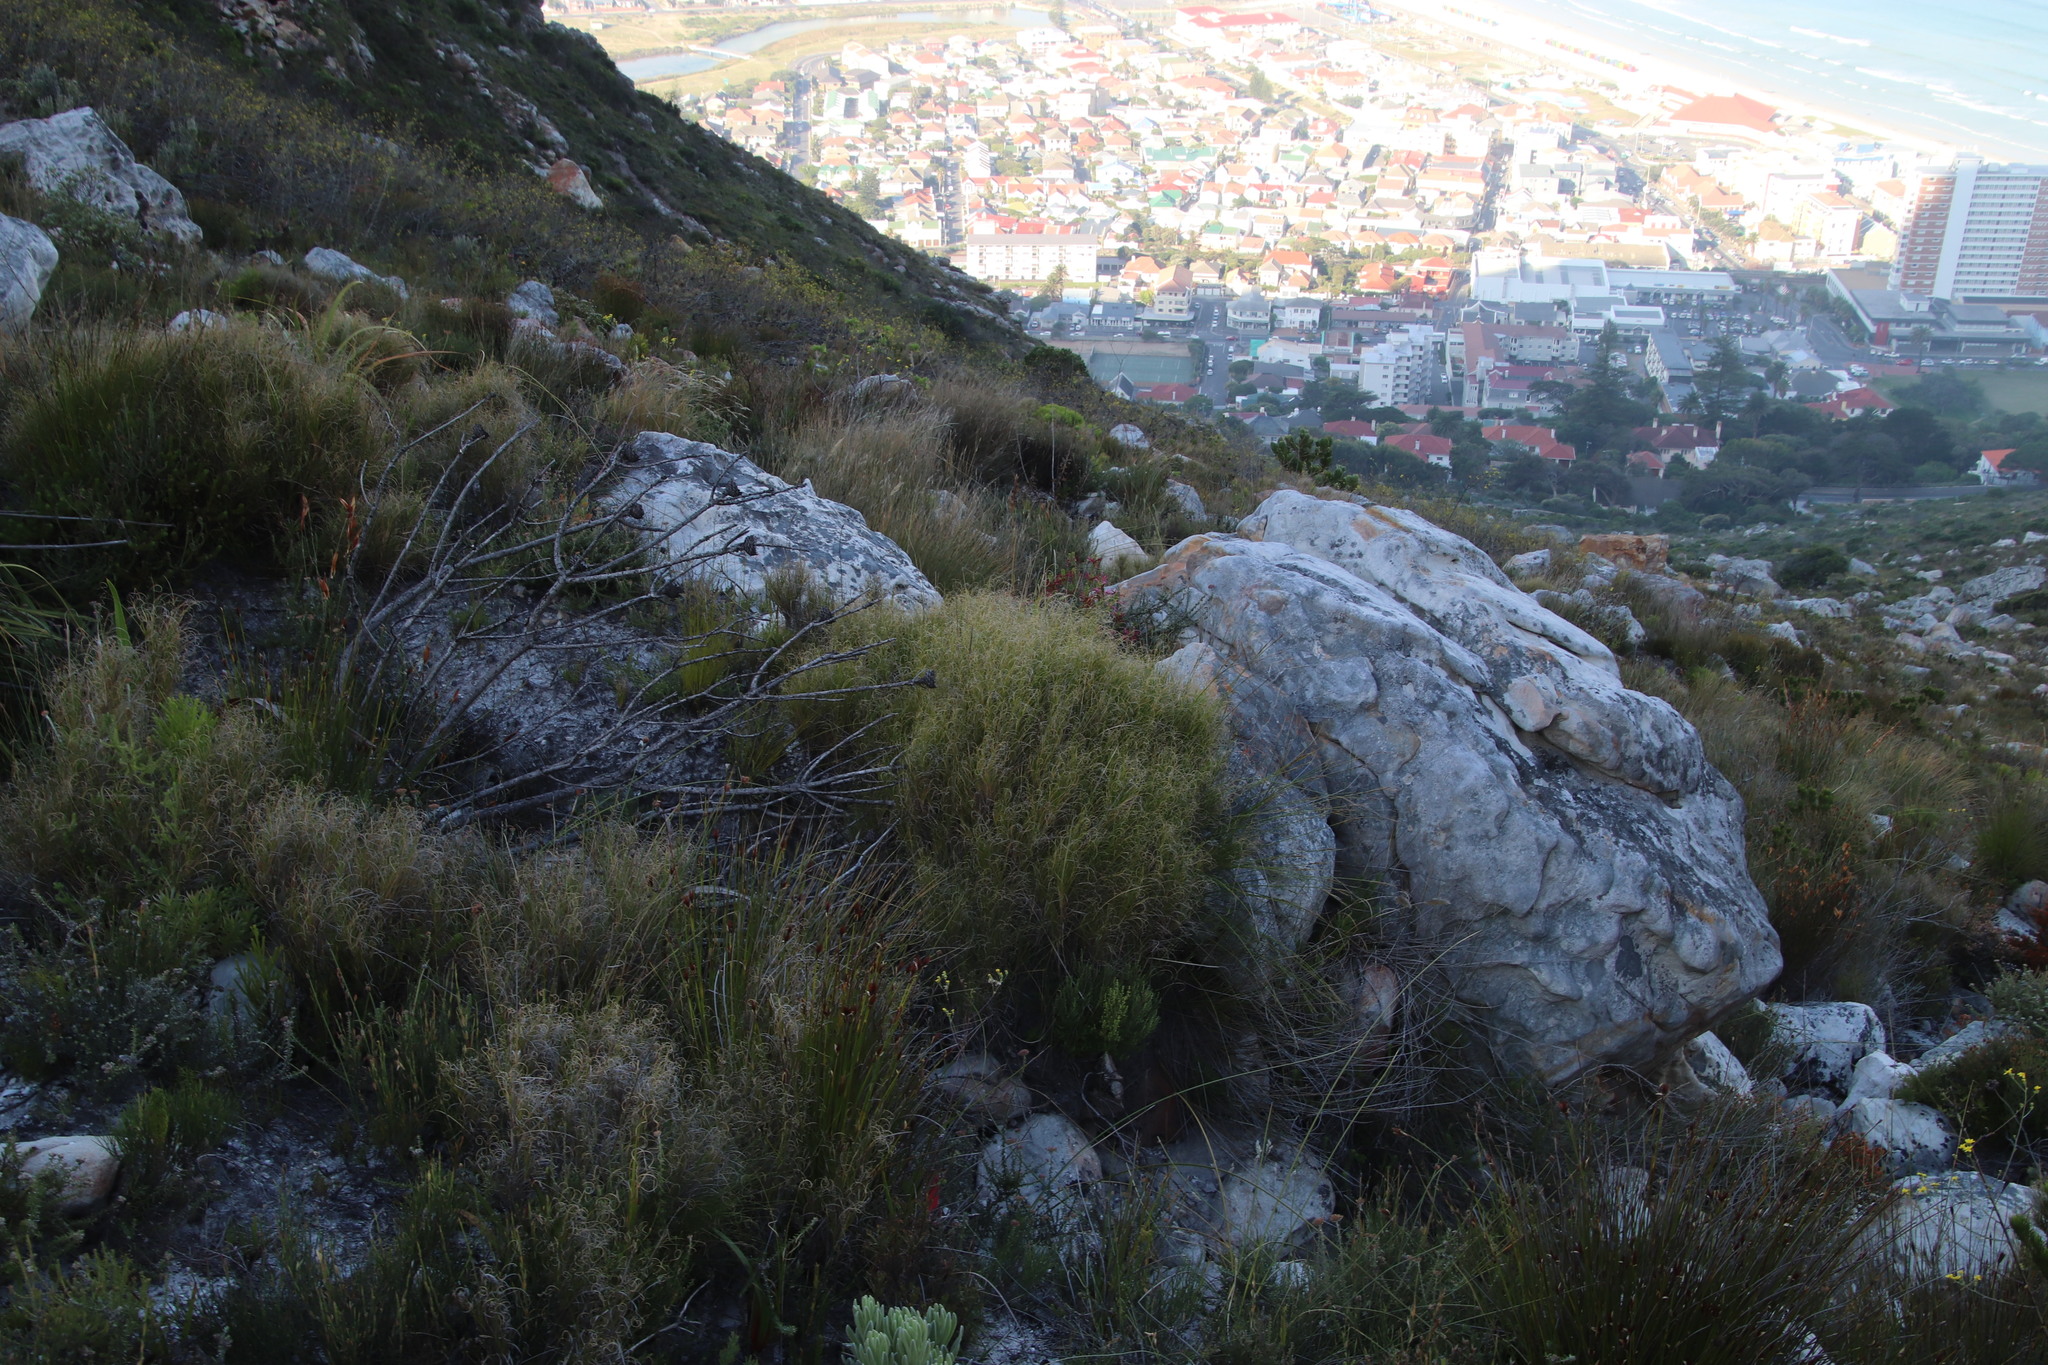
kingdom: Plantae
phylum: Tracheophyta
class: Liliopsida
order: Poales
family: Poaceae
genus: Pseudopentameris
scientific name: Pseudopentameris macrantha
